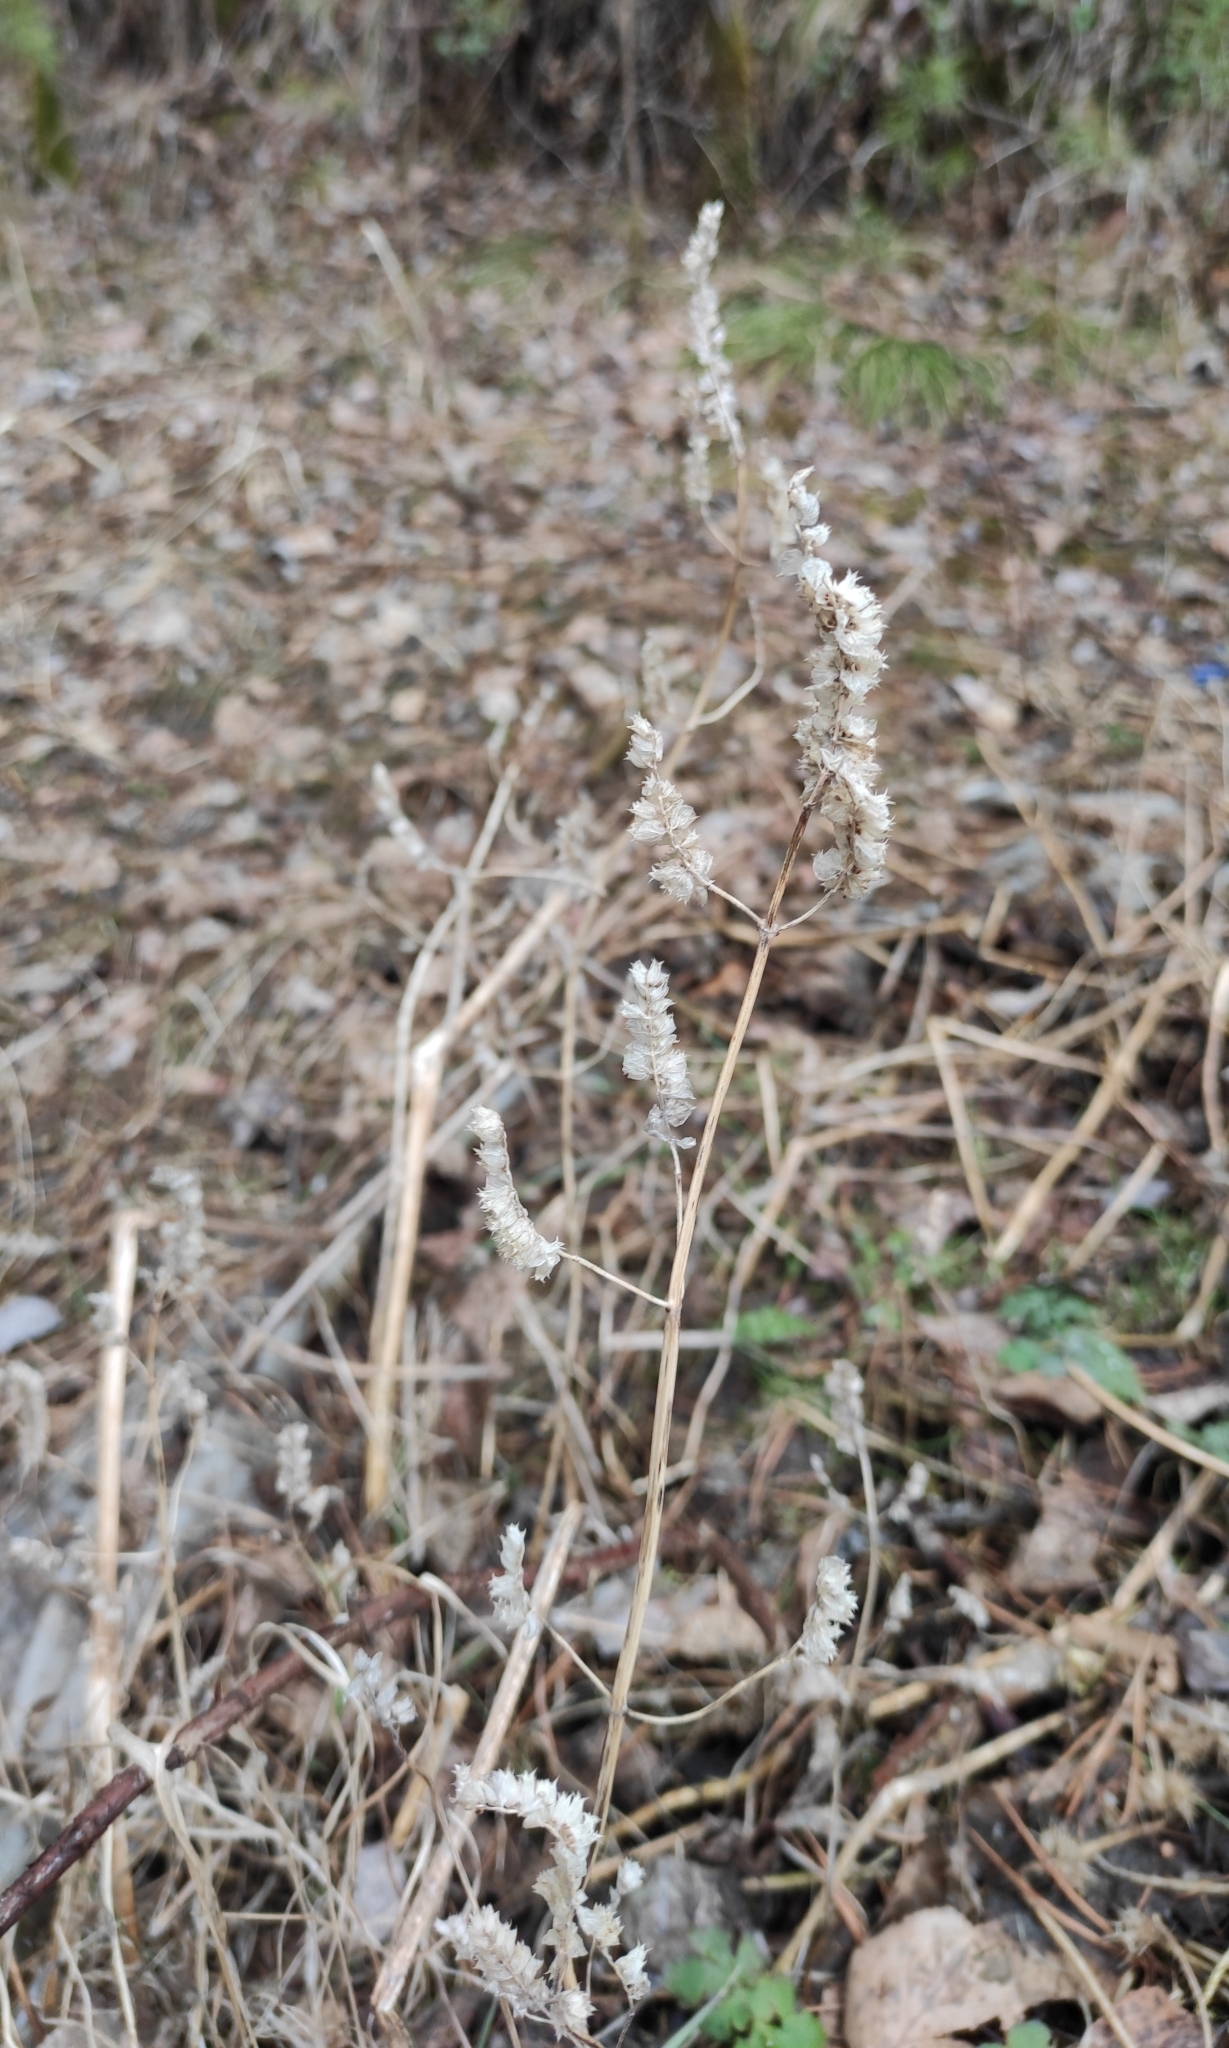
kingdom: Plantae
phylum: Tracheophyta
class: Magnoliopsida
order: Lamiales
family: Lamiaceae
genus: Elsholtzia
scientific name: Elsholtzia ciliata
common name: Ciliate elsholtzia
